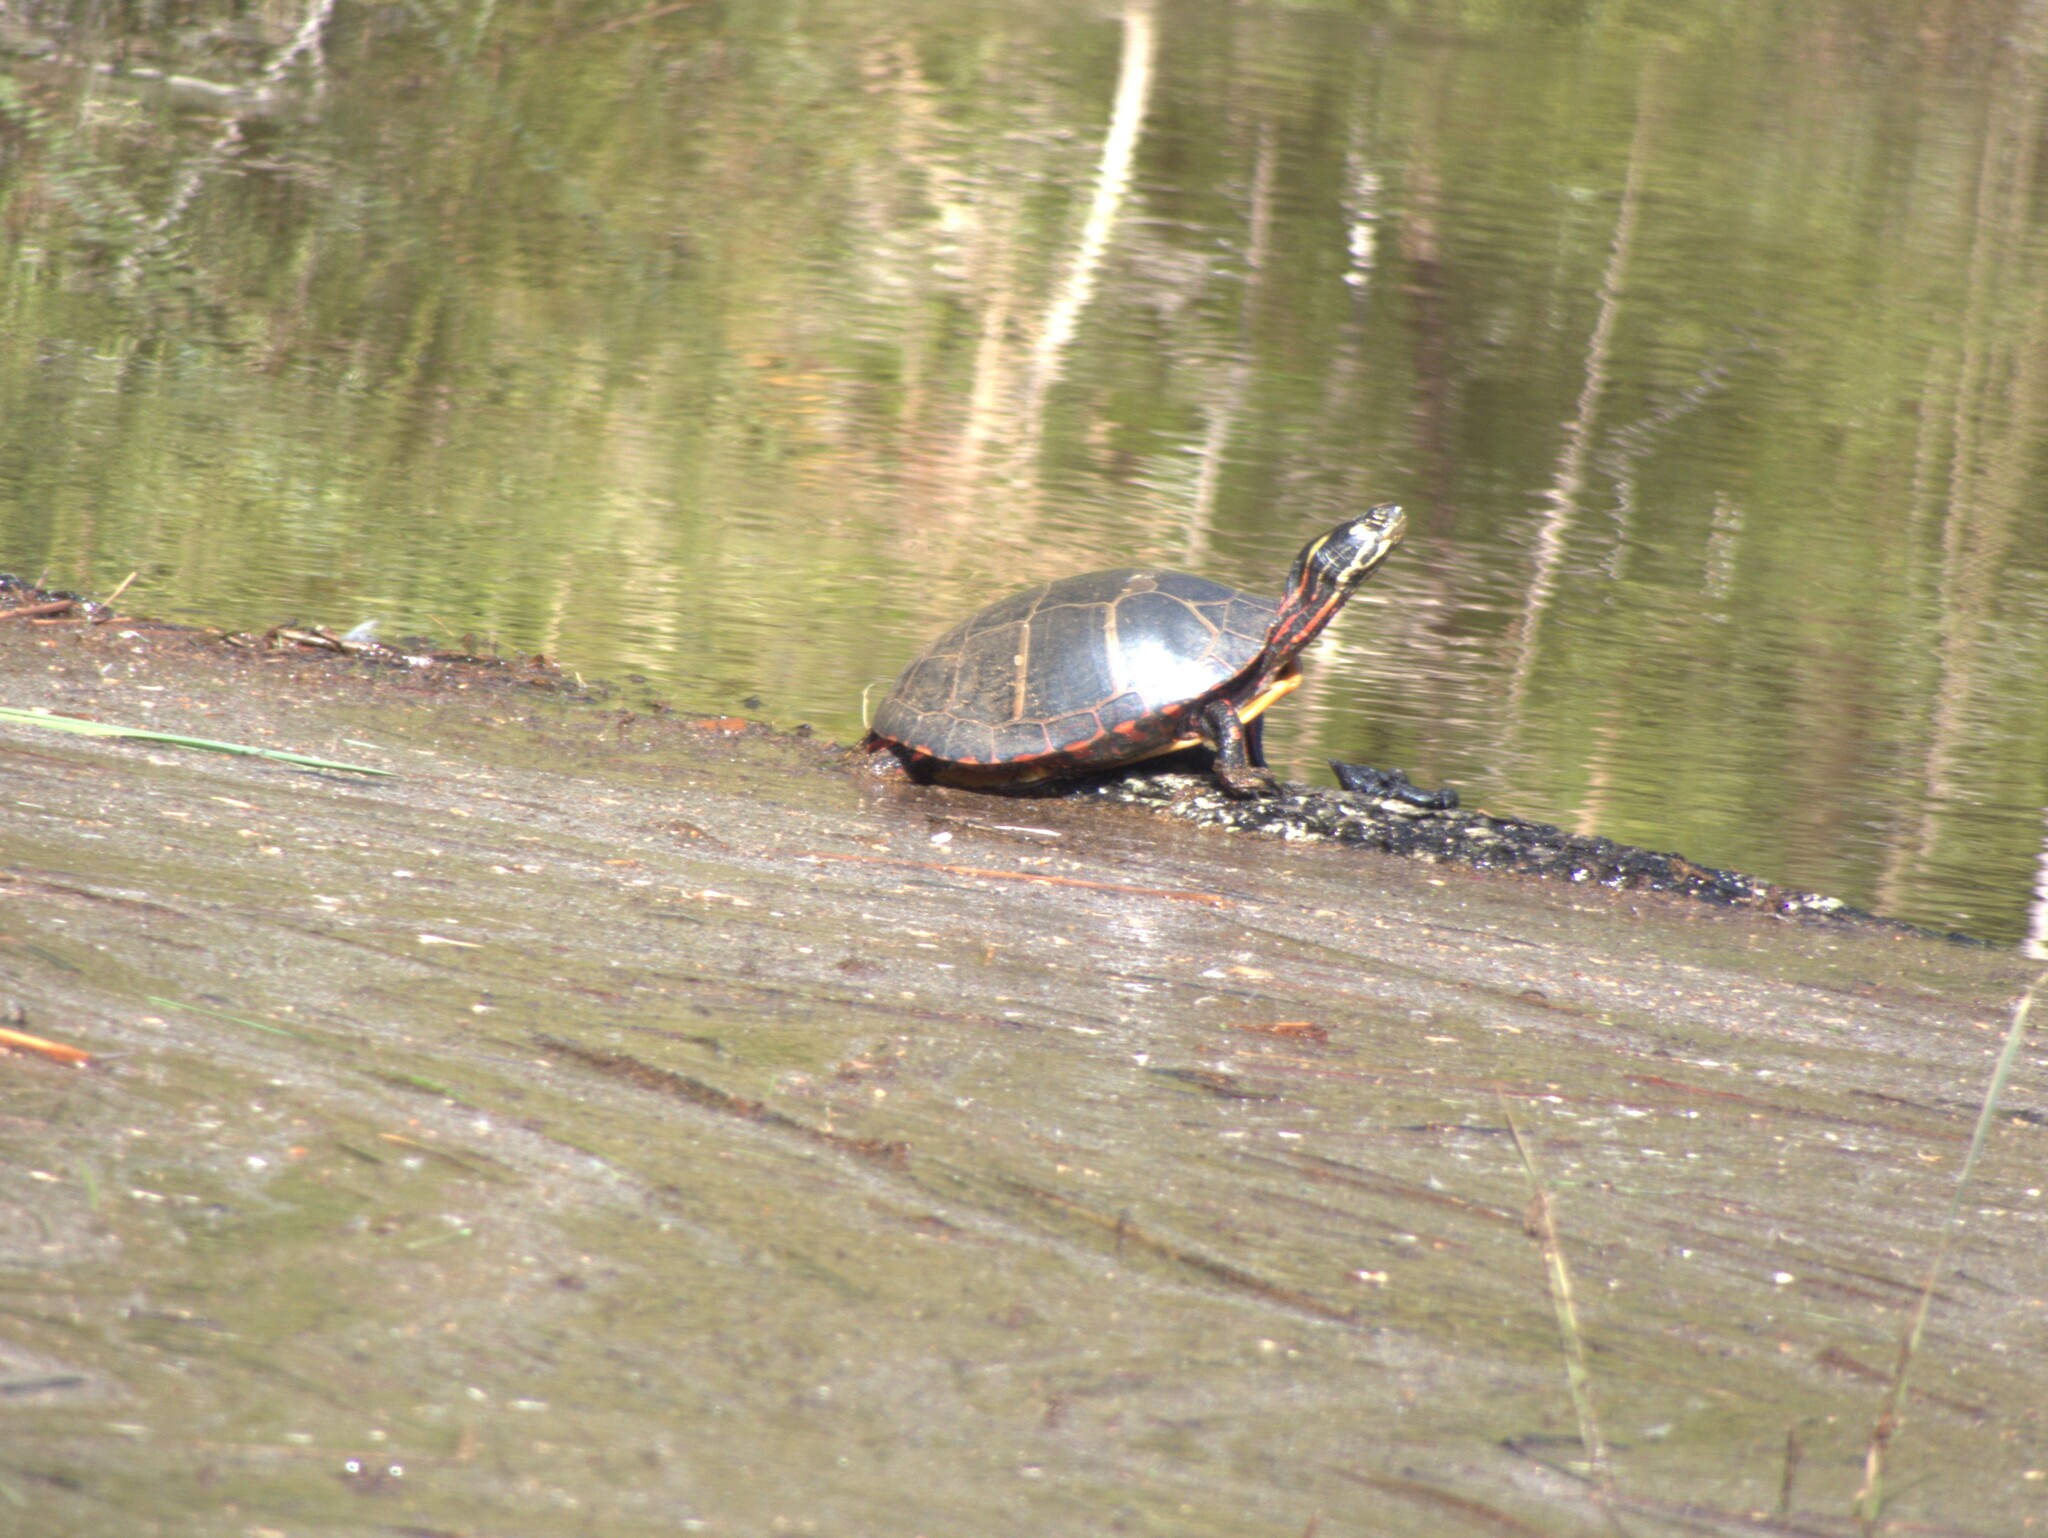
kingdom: Animalia
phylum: Chordata
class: Testudines
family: Emydidae
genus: Chrysemys
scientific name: Chrysemys picta
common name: Painted turtle
